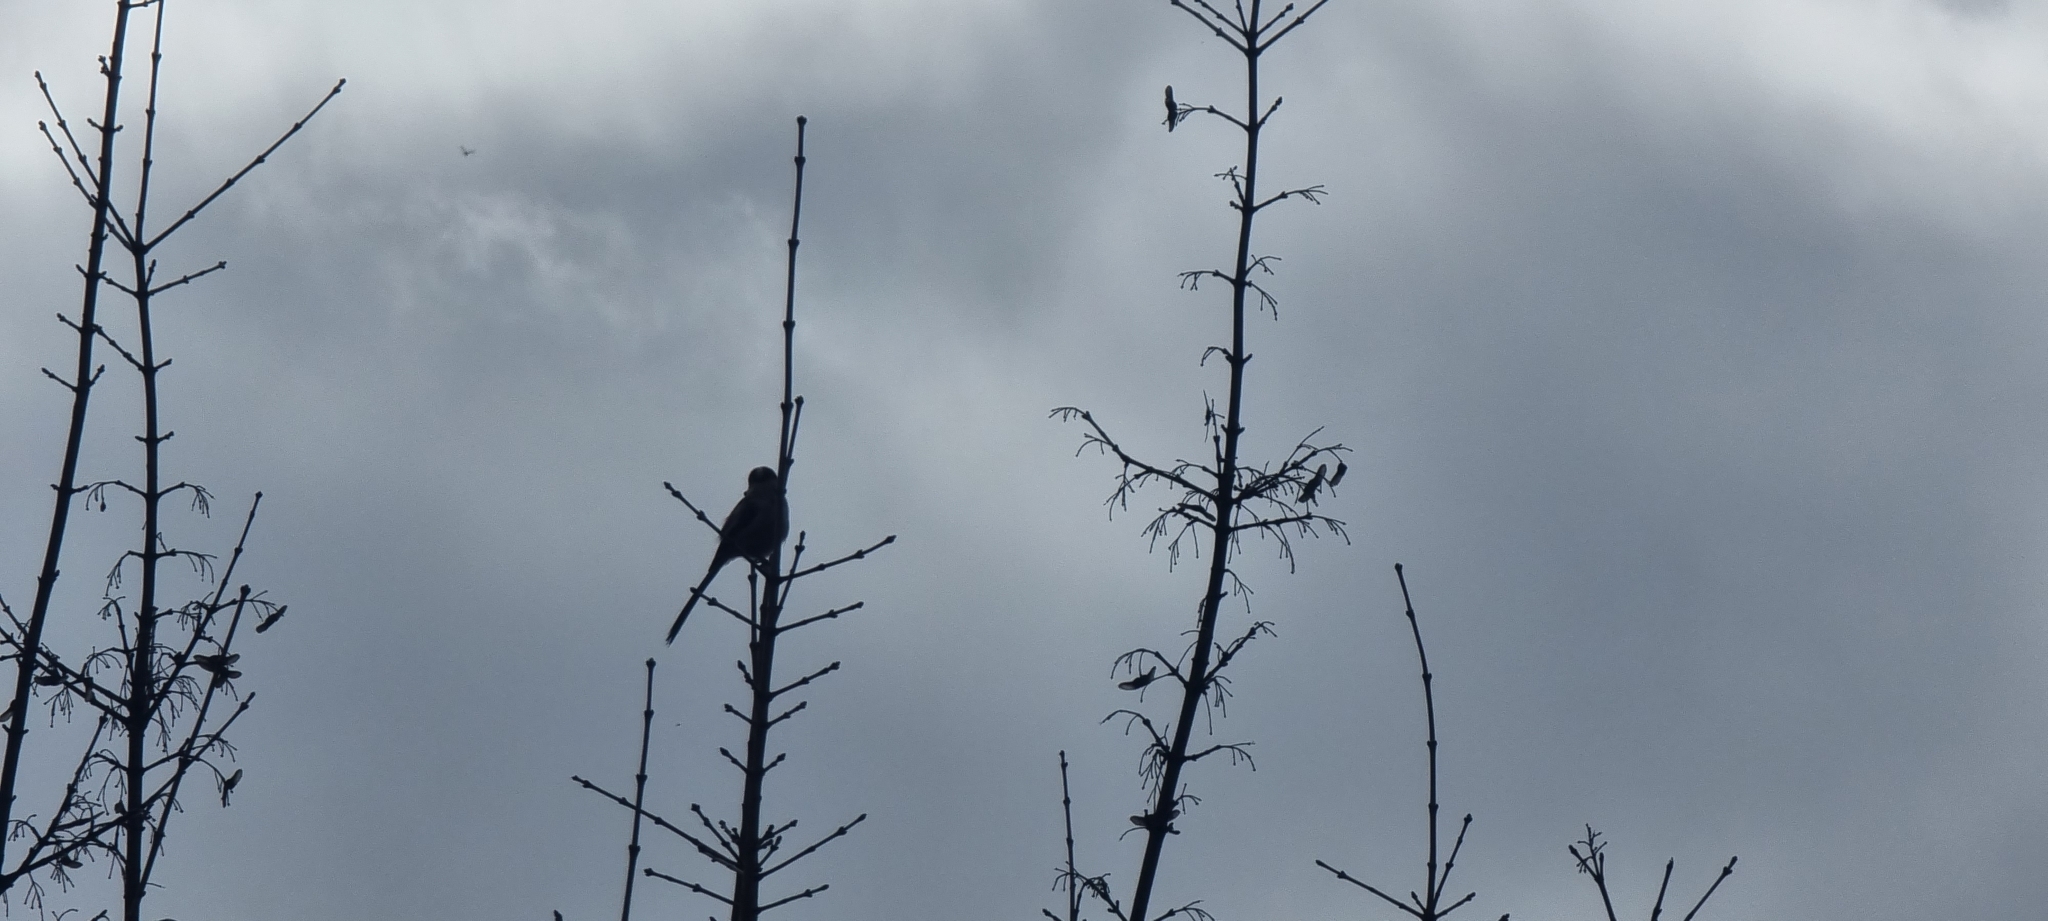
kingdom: Animalia
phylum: Chordata
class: Aves
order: Passeriformes
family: Aegithalidae
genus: Aegithalos
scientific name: Aegithalos caudatus
